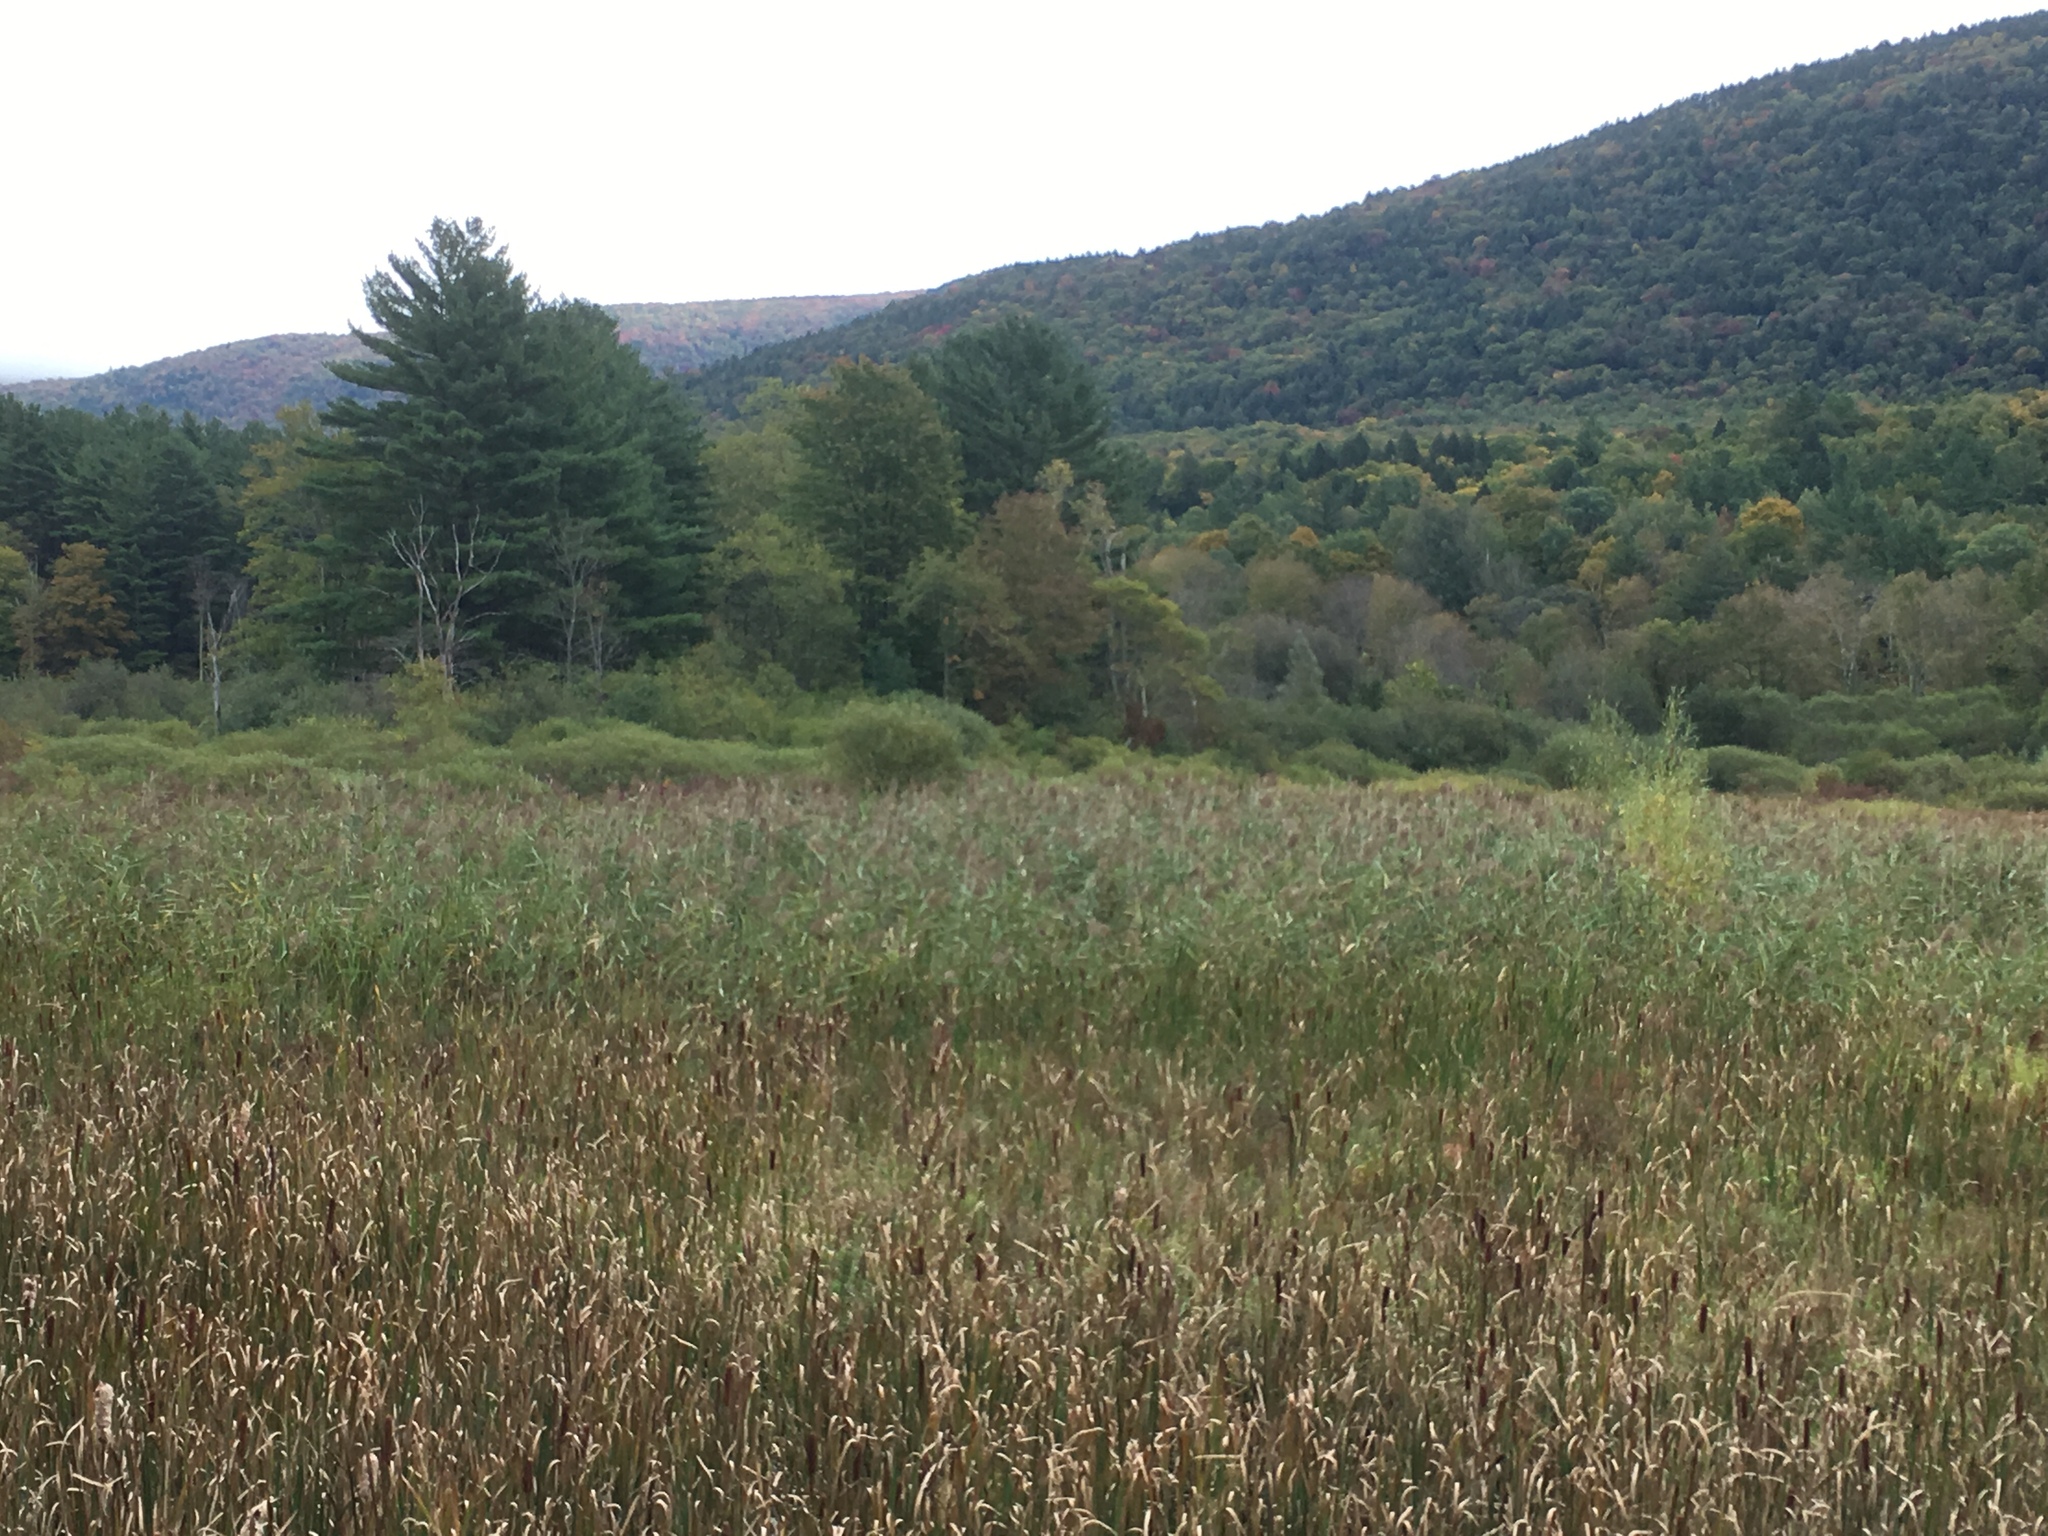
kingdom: Plantae
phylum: Tracheophyta
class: Liliopsida
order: Poales
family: Poaceae
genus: Phragmites
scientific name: Phragmites australis
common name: Common reed
